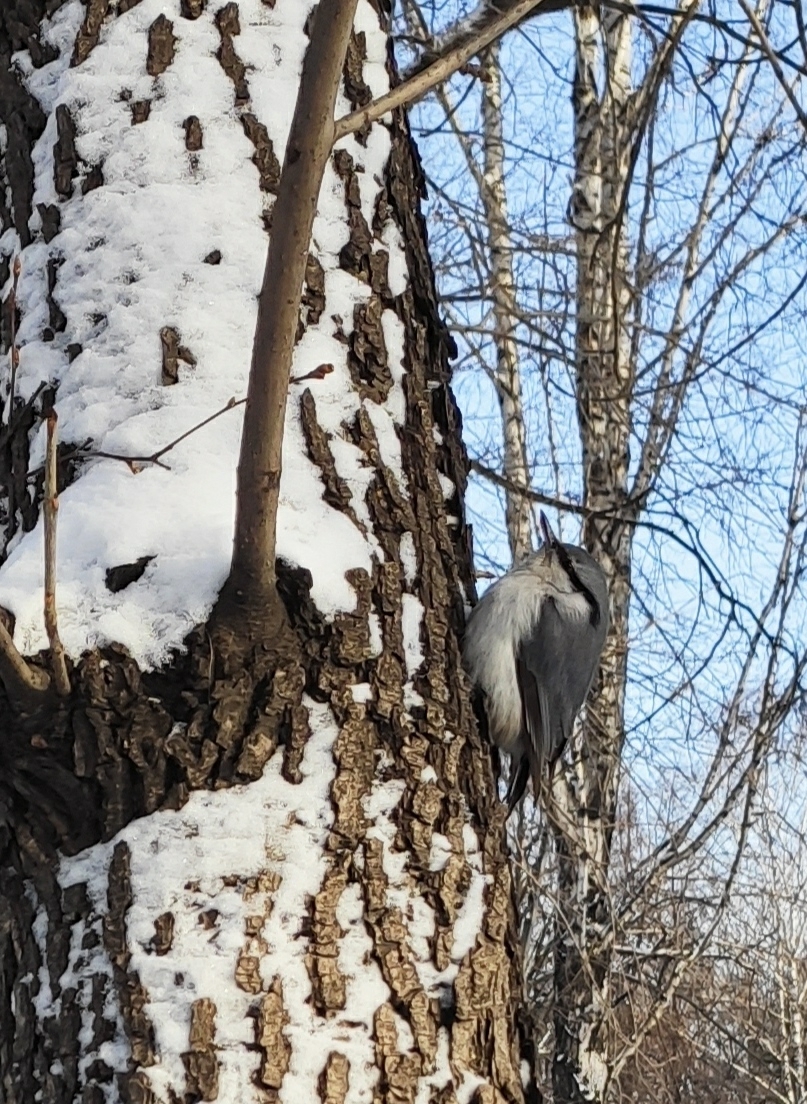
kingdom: Animalia
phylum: Chordata
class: Aves
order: Passeriformes
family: Sittidae
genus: Sitta
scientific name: Sitta europaea
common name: Eurasian nuthatch
